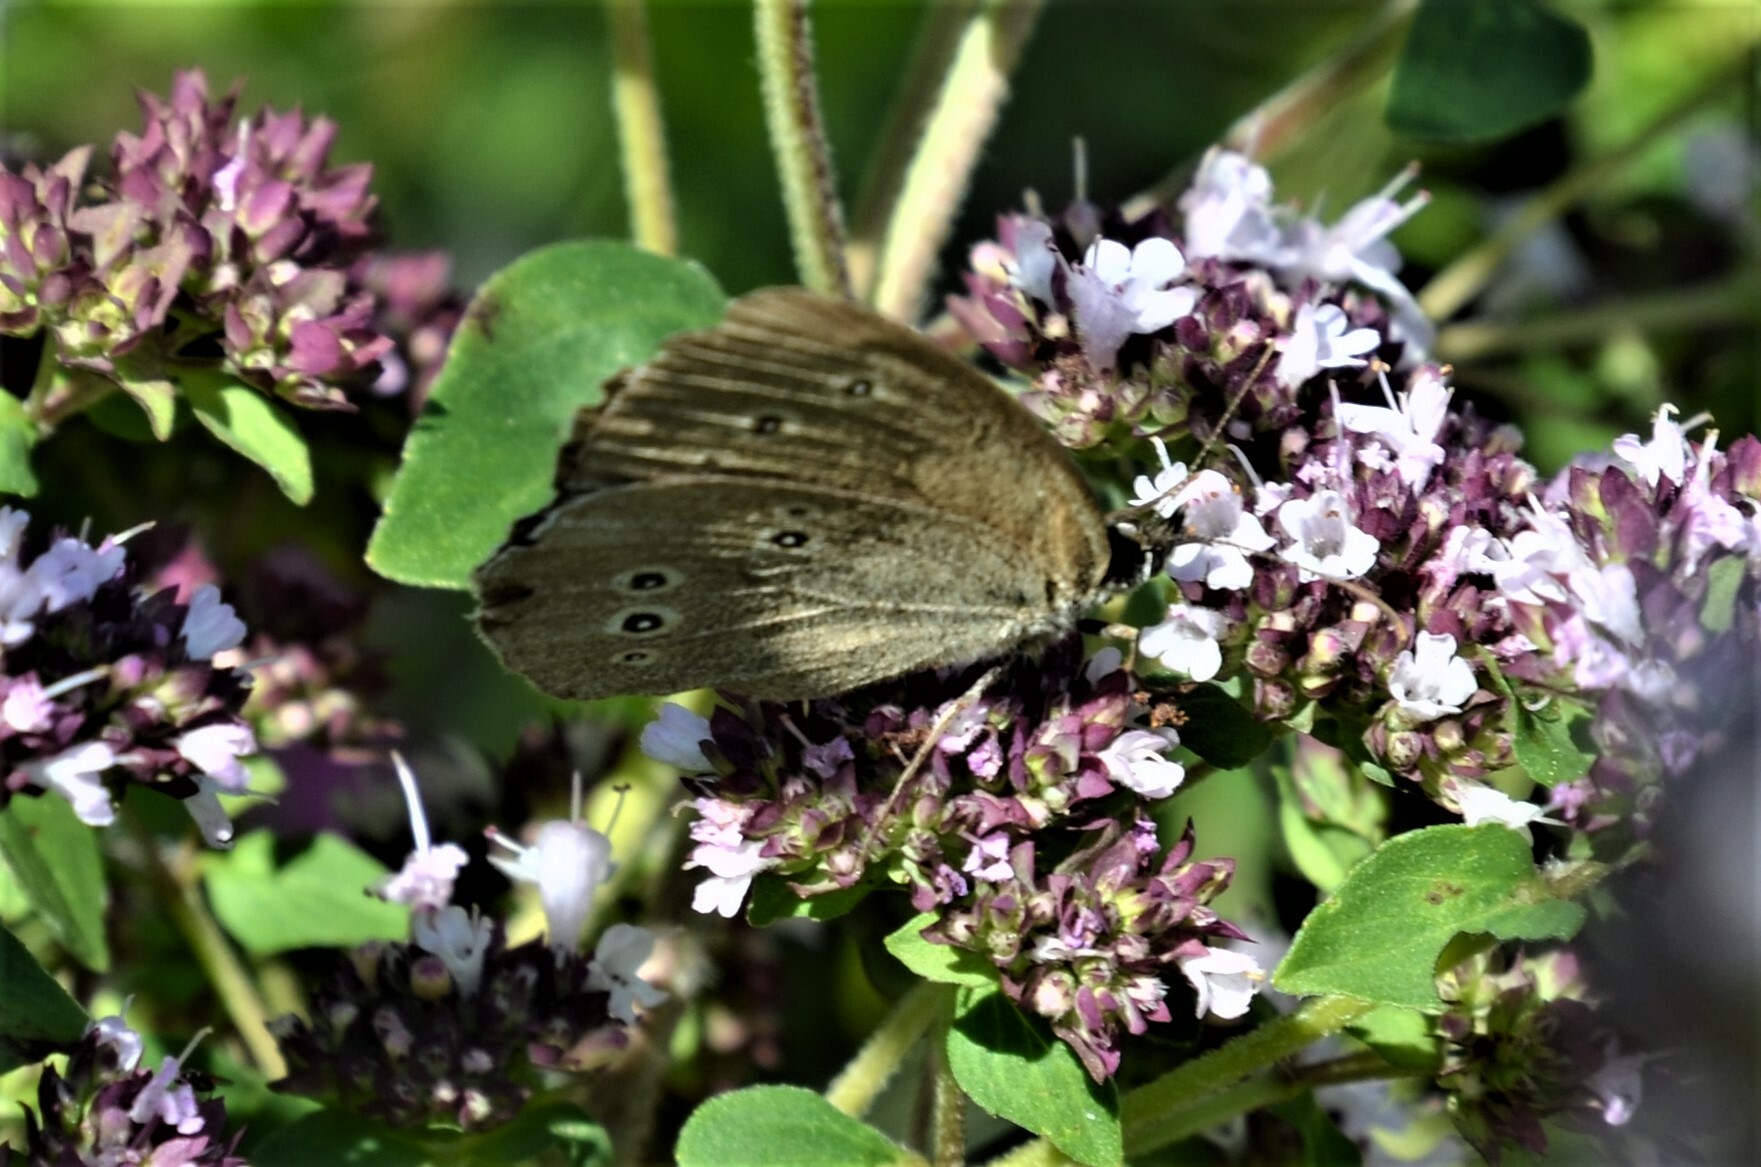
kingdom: Animalia
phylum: Arthropoda
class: Insecta
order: Lepidoptera
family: Nymphalidae
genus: Aphantopus
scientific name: Aphantopus hyperantus
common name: Ringlet
